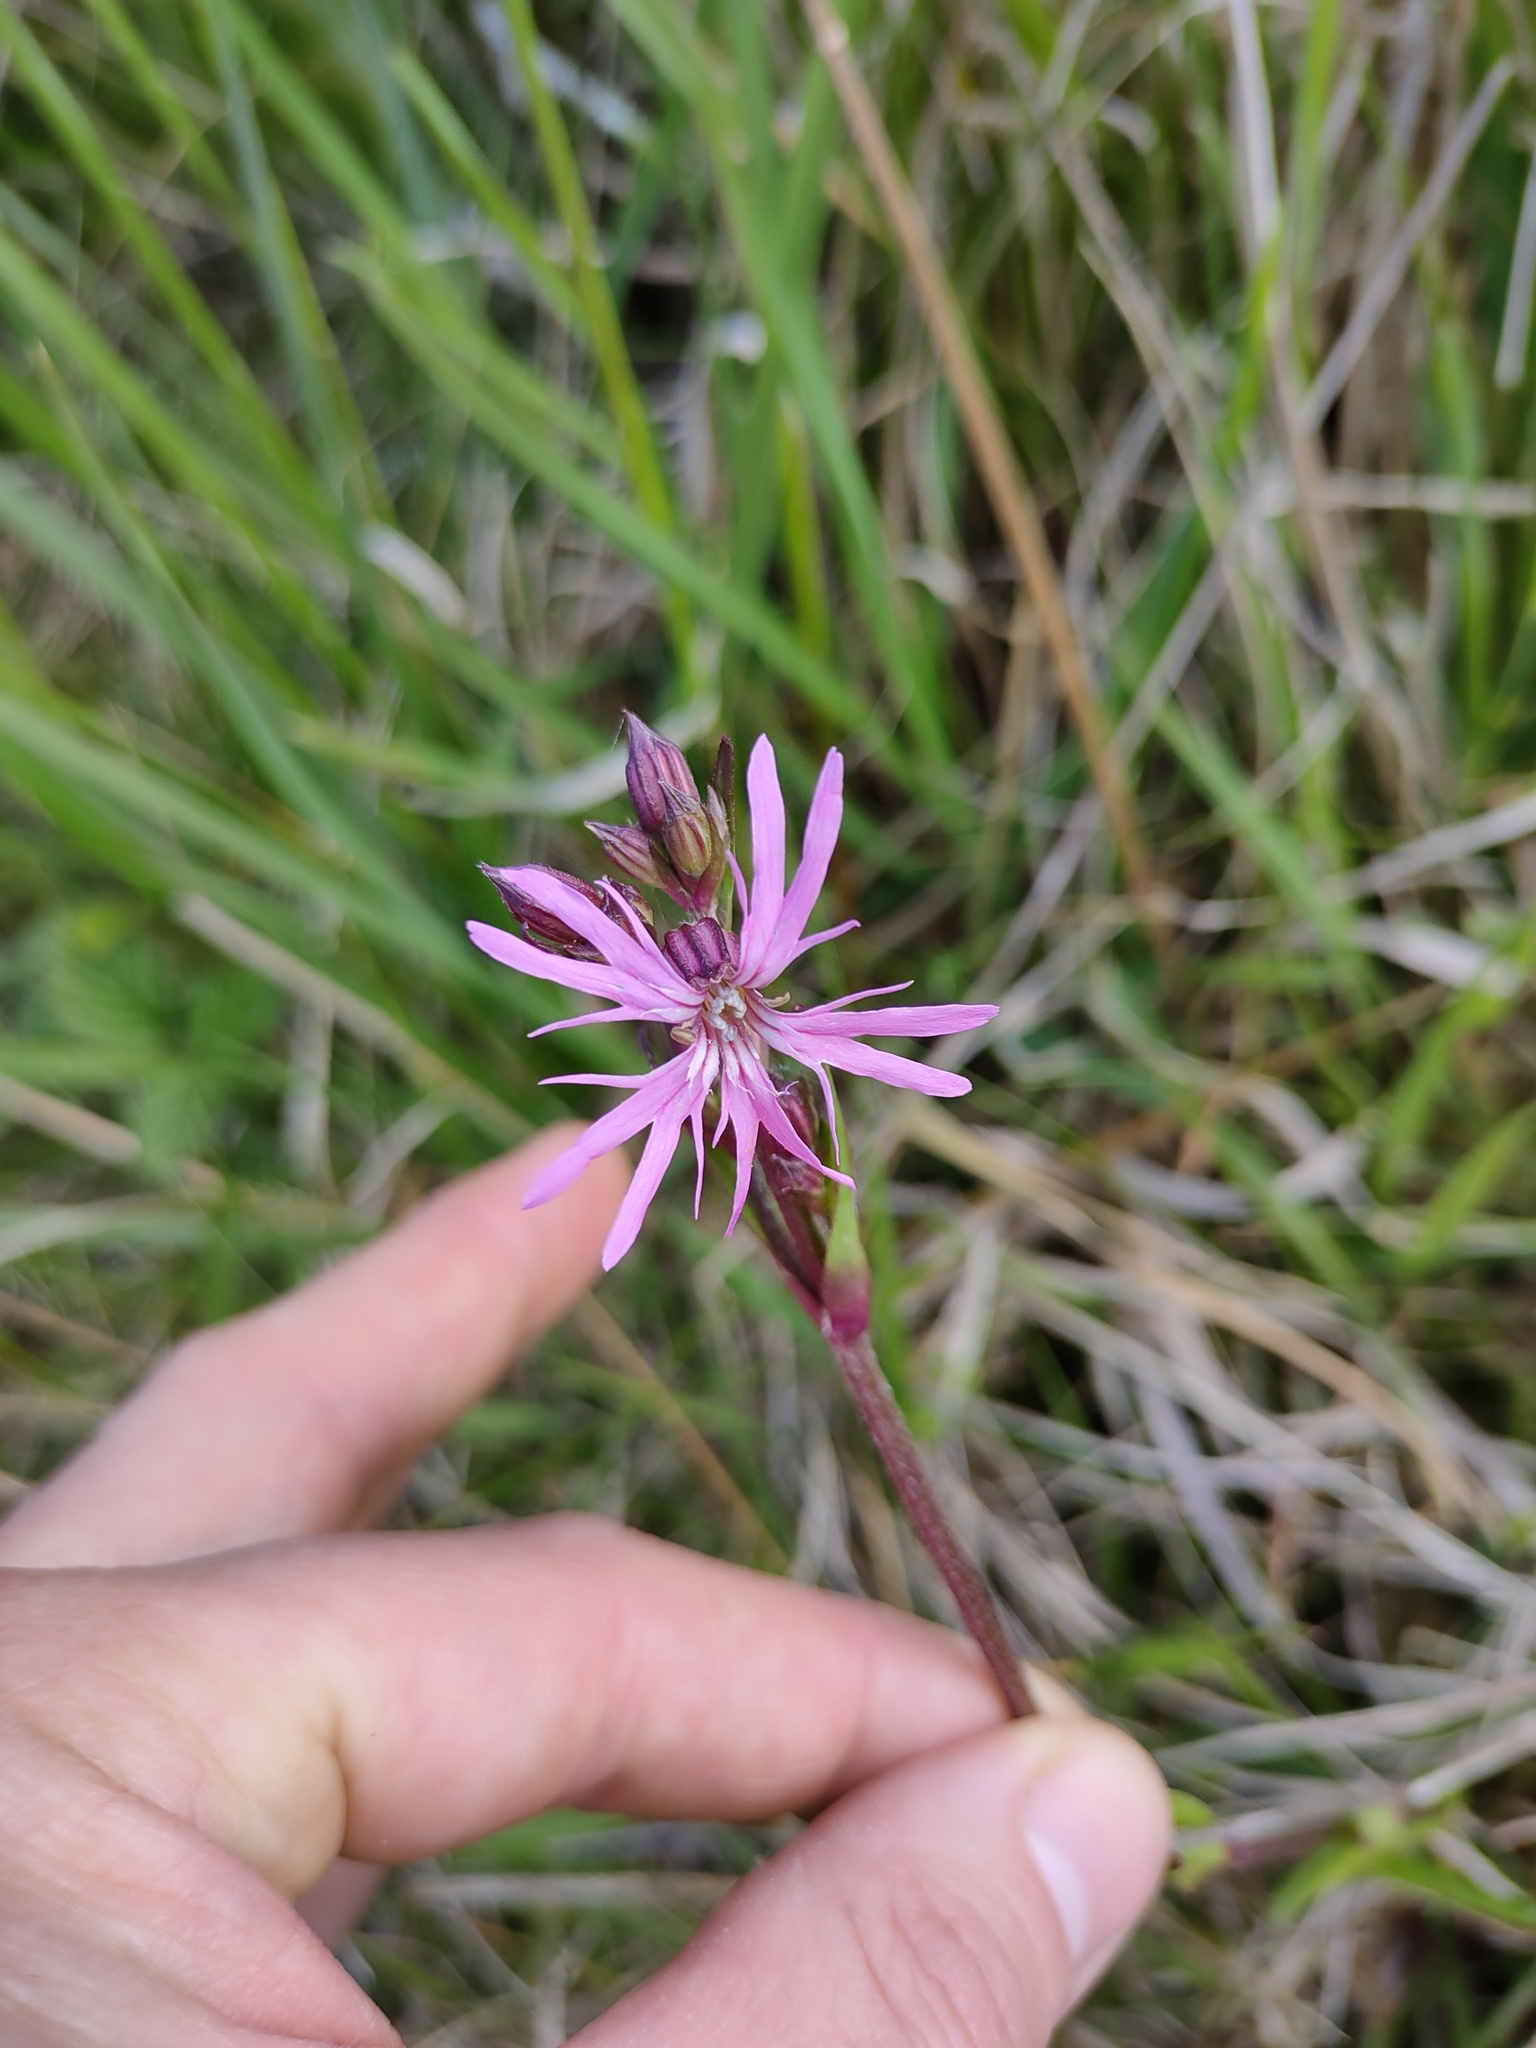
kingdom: Plantae
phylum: Tracheophyta
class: Magnoliopsida
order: Caryophyllales
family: Caryophyllaceae
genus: Silene
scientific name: Silene flos-cuculi
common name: Ragged-robin
